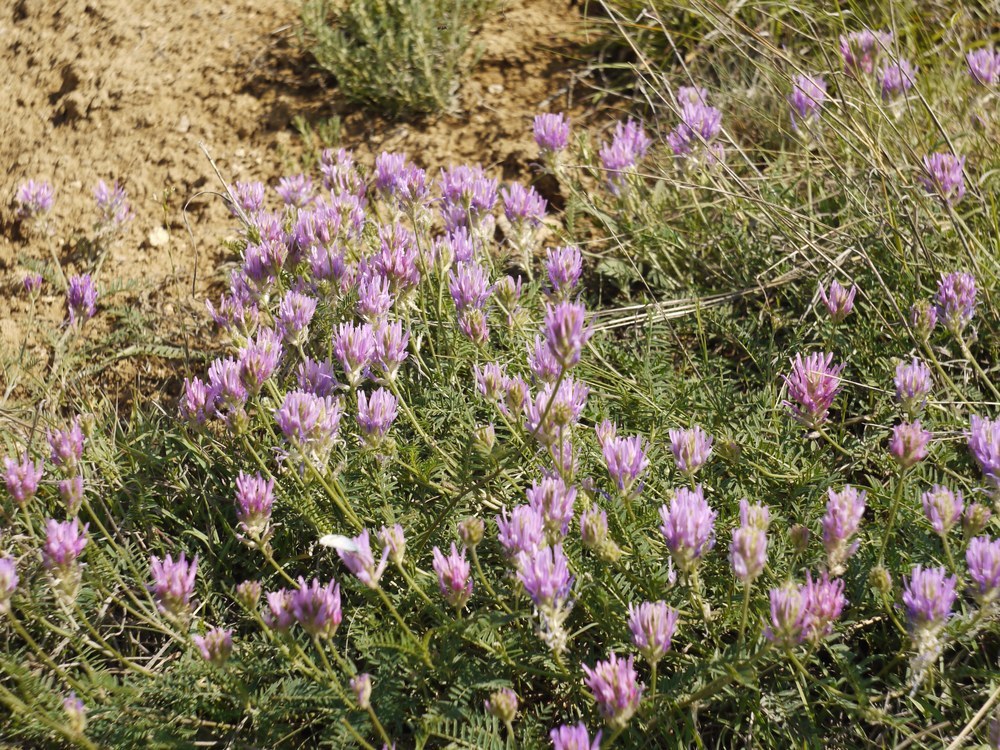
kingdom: Plantae
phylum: Tracheophyta
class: Magnoliopsida
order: Fabales
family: Fabaceae
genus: Astragalus
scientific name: Astragalus onobrychis
